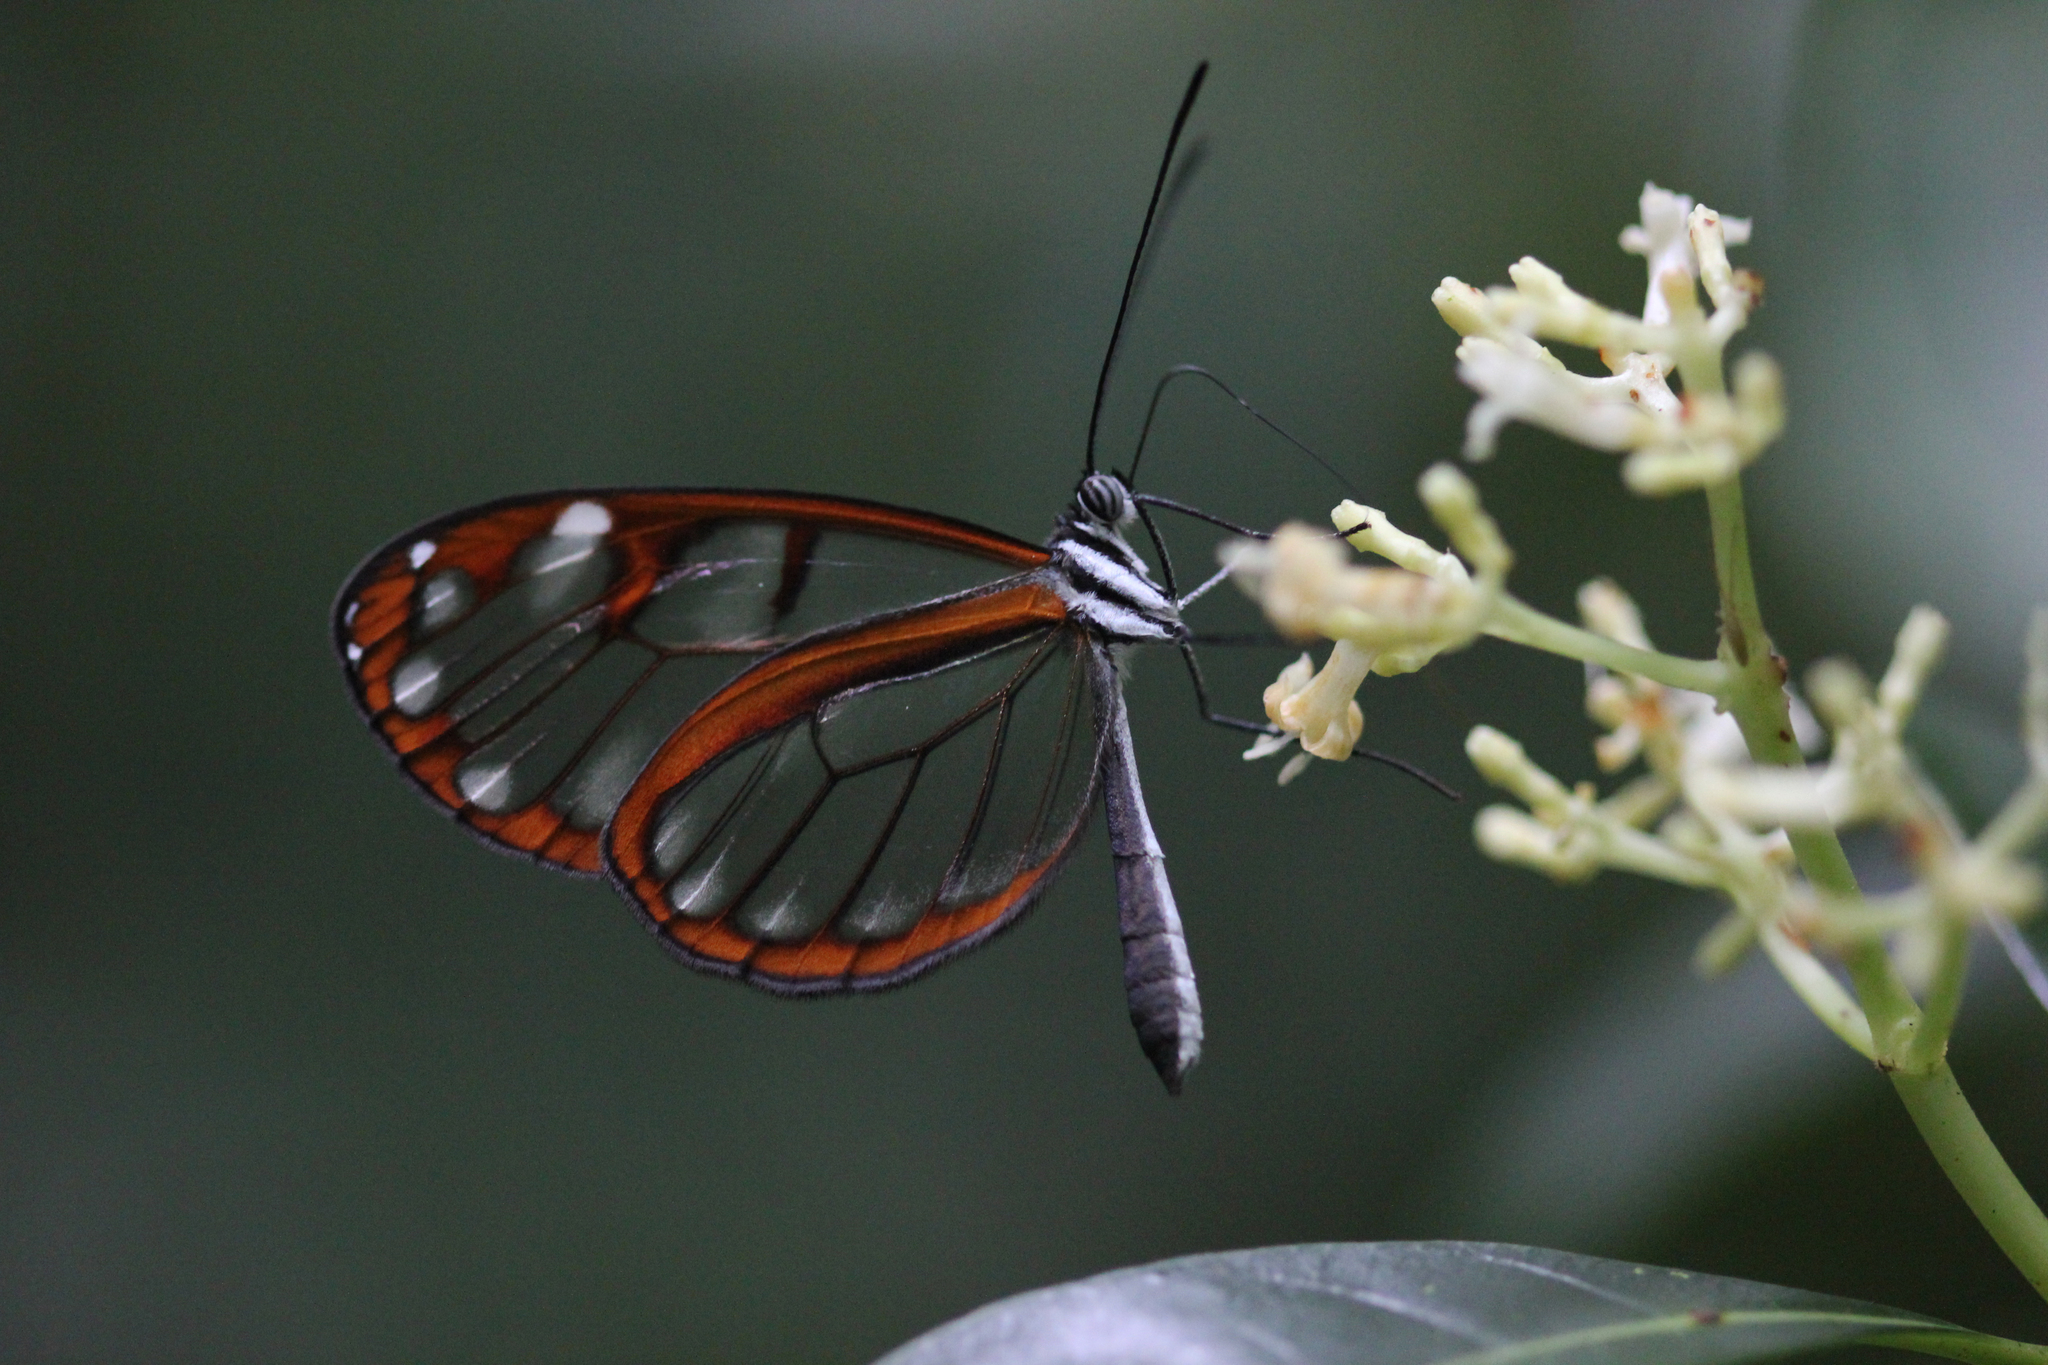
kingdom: Animalia
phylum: Arthropoda
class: Insecta
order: Lepidoptera
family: Nymphalidae
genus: Oleria
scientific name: Oleria vicina
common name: Vicina clearwing
